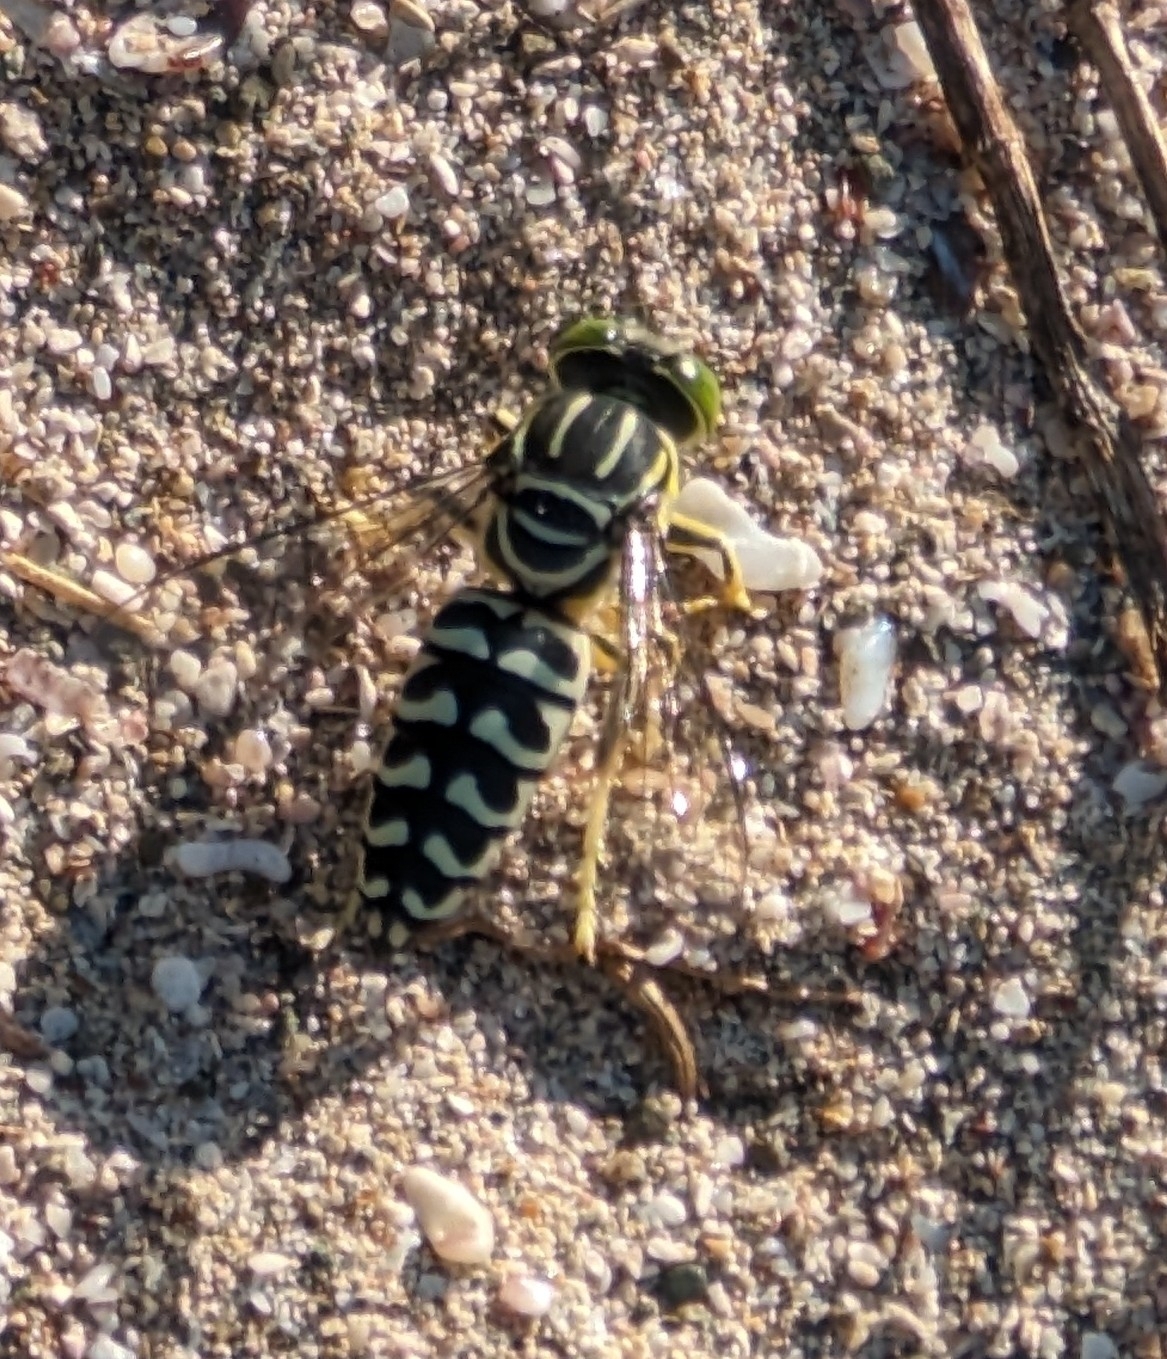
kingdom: Animalia
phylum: Arthropoda
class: Insecta
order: Hymenoptera
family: Crabronidae
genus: Stictia
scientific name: Stictia signata
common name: Sand wasp
